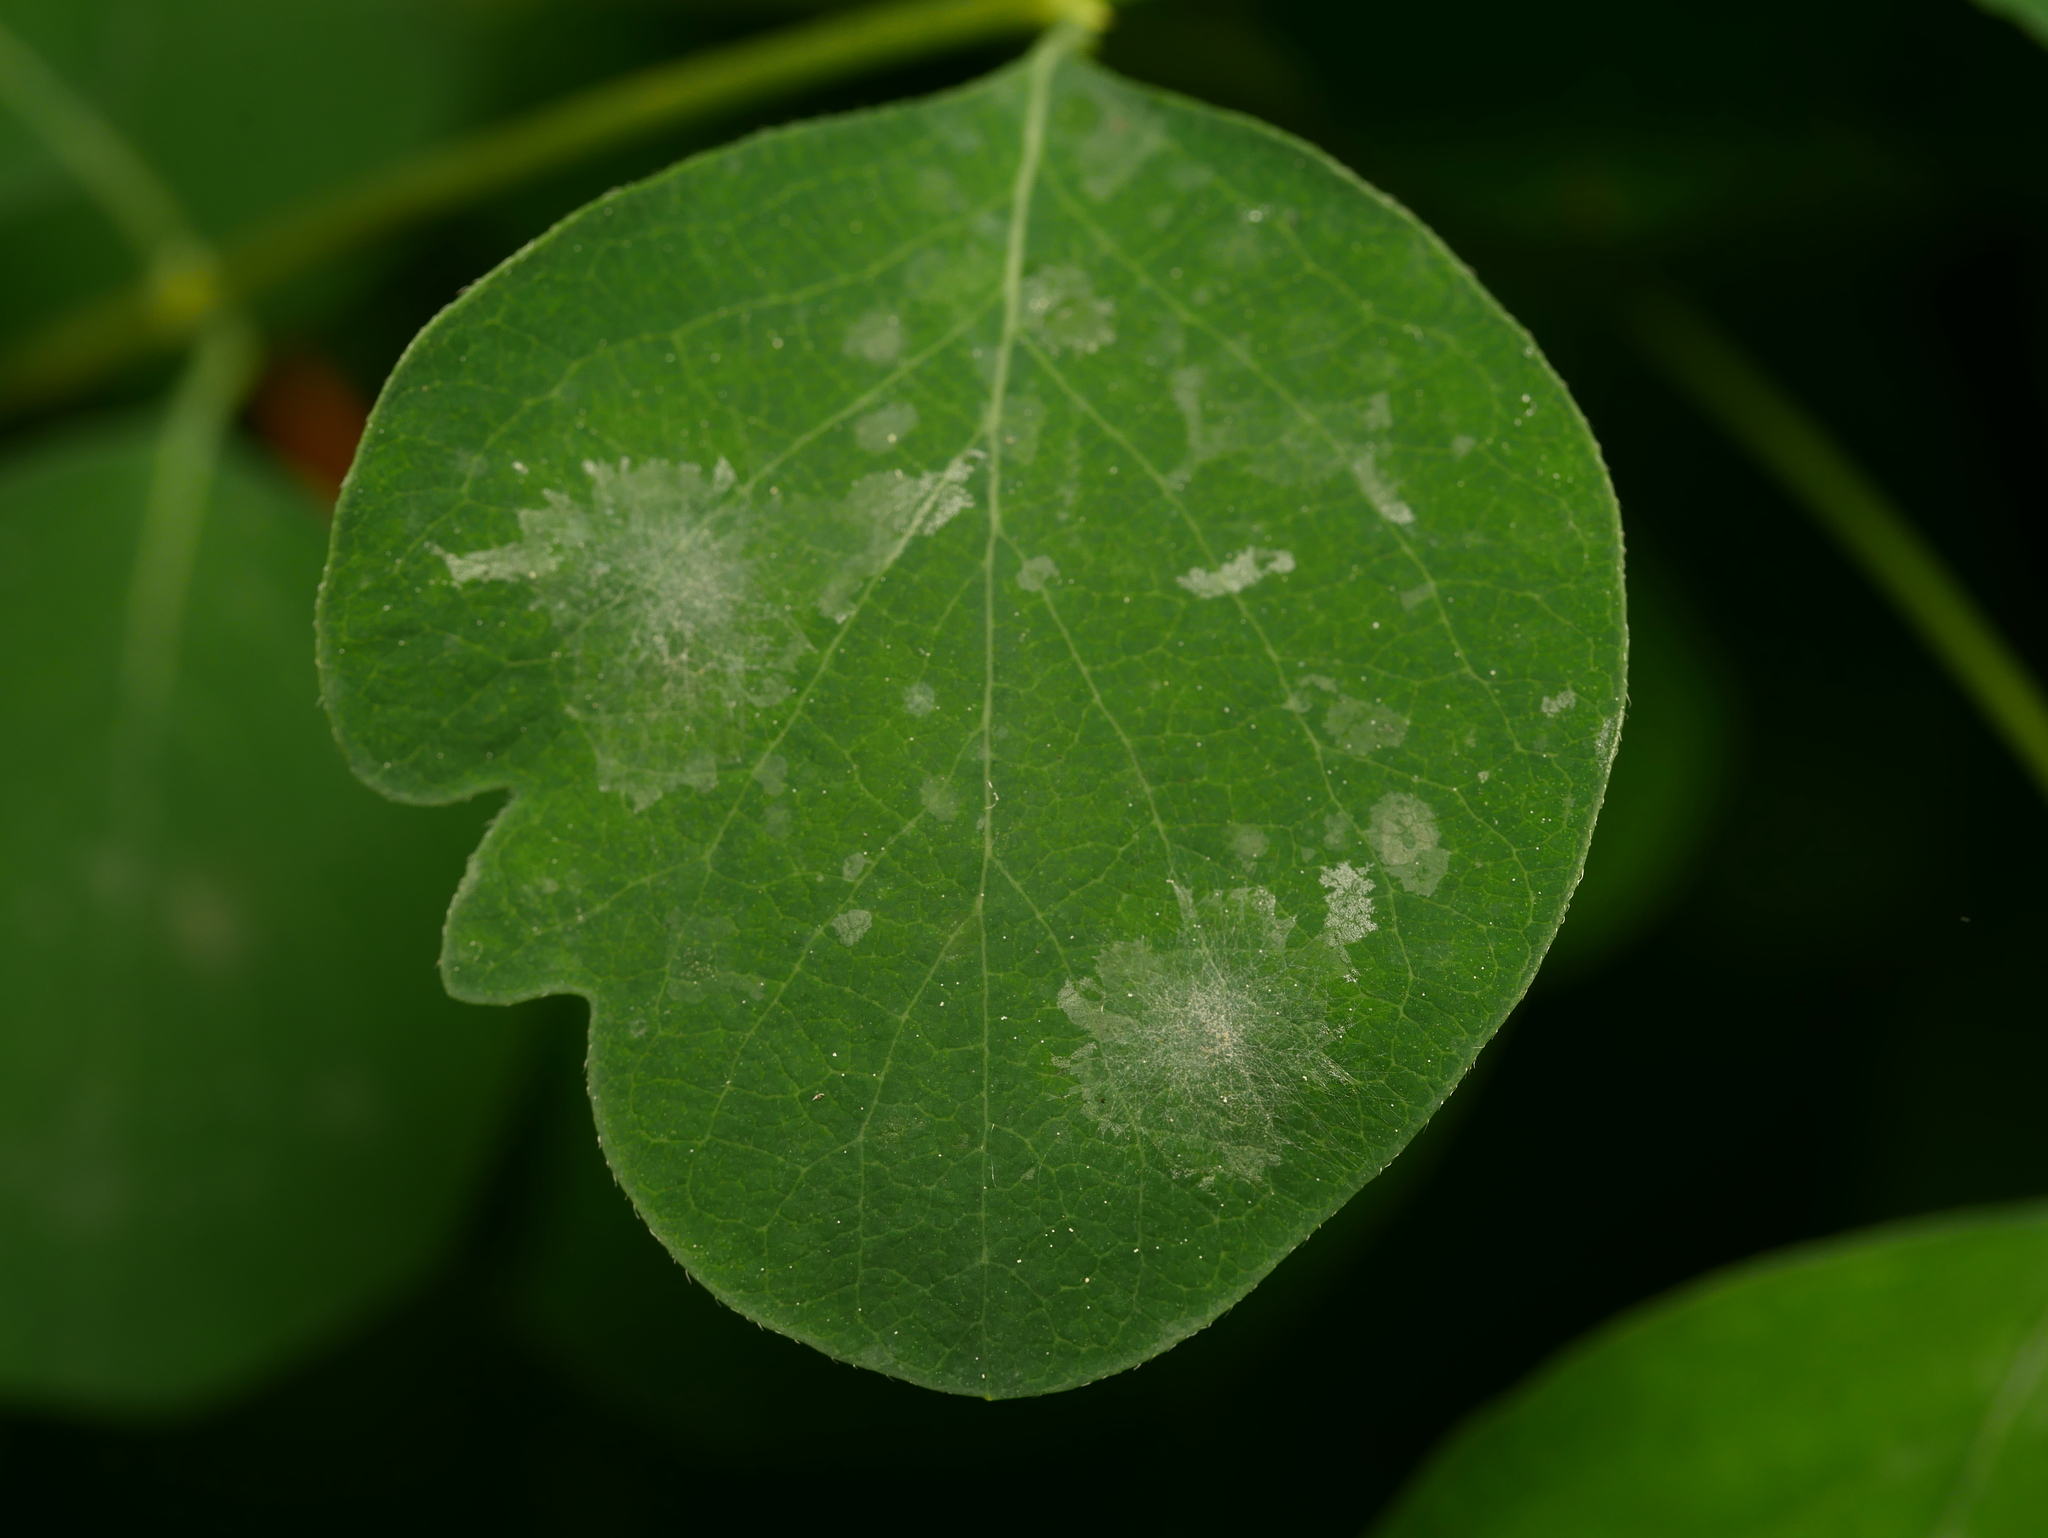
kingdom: Fungi
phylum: Ascomycota
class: Leotiomycetes
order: Helotiales
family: Erysiphaceae
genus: Erysiphe
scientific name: Erysiphe symphoricarpi
